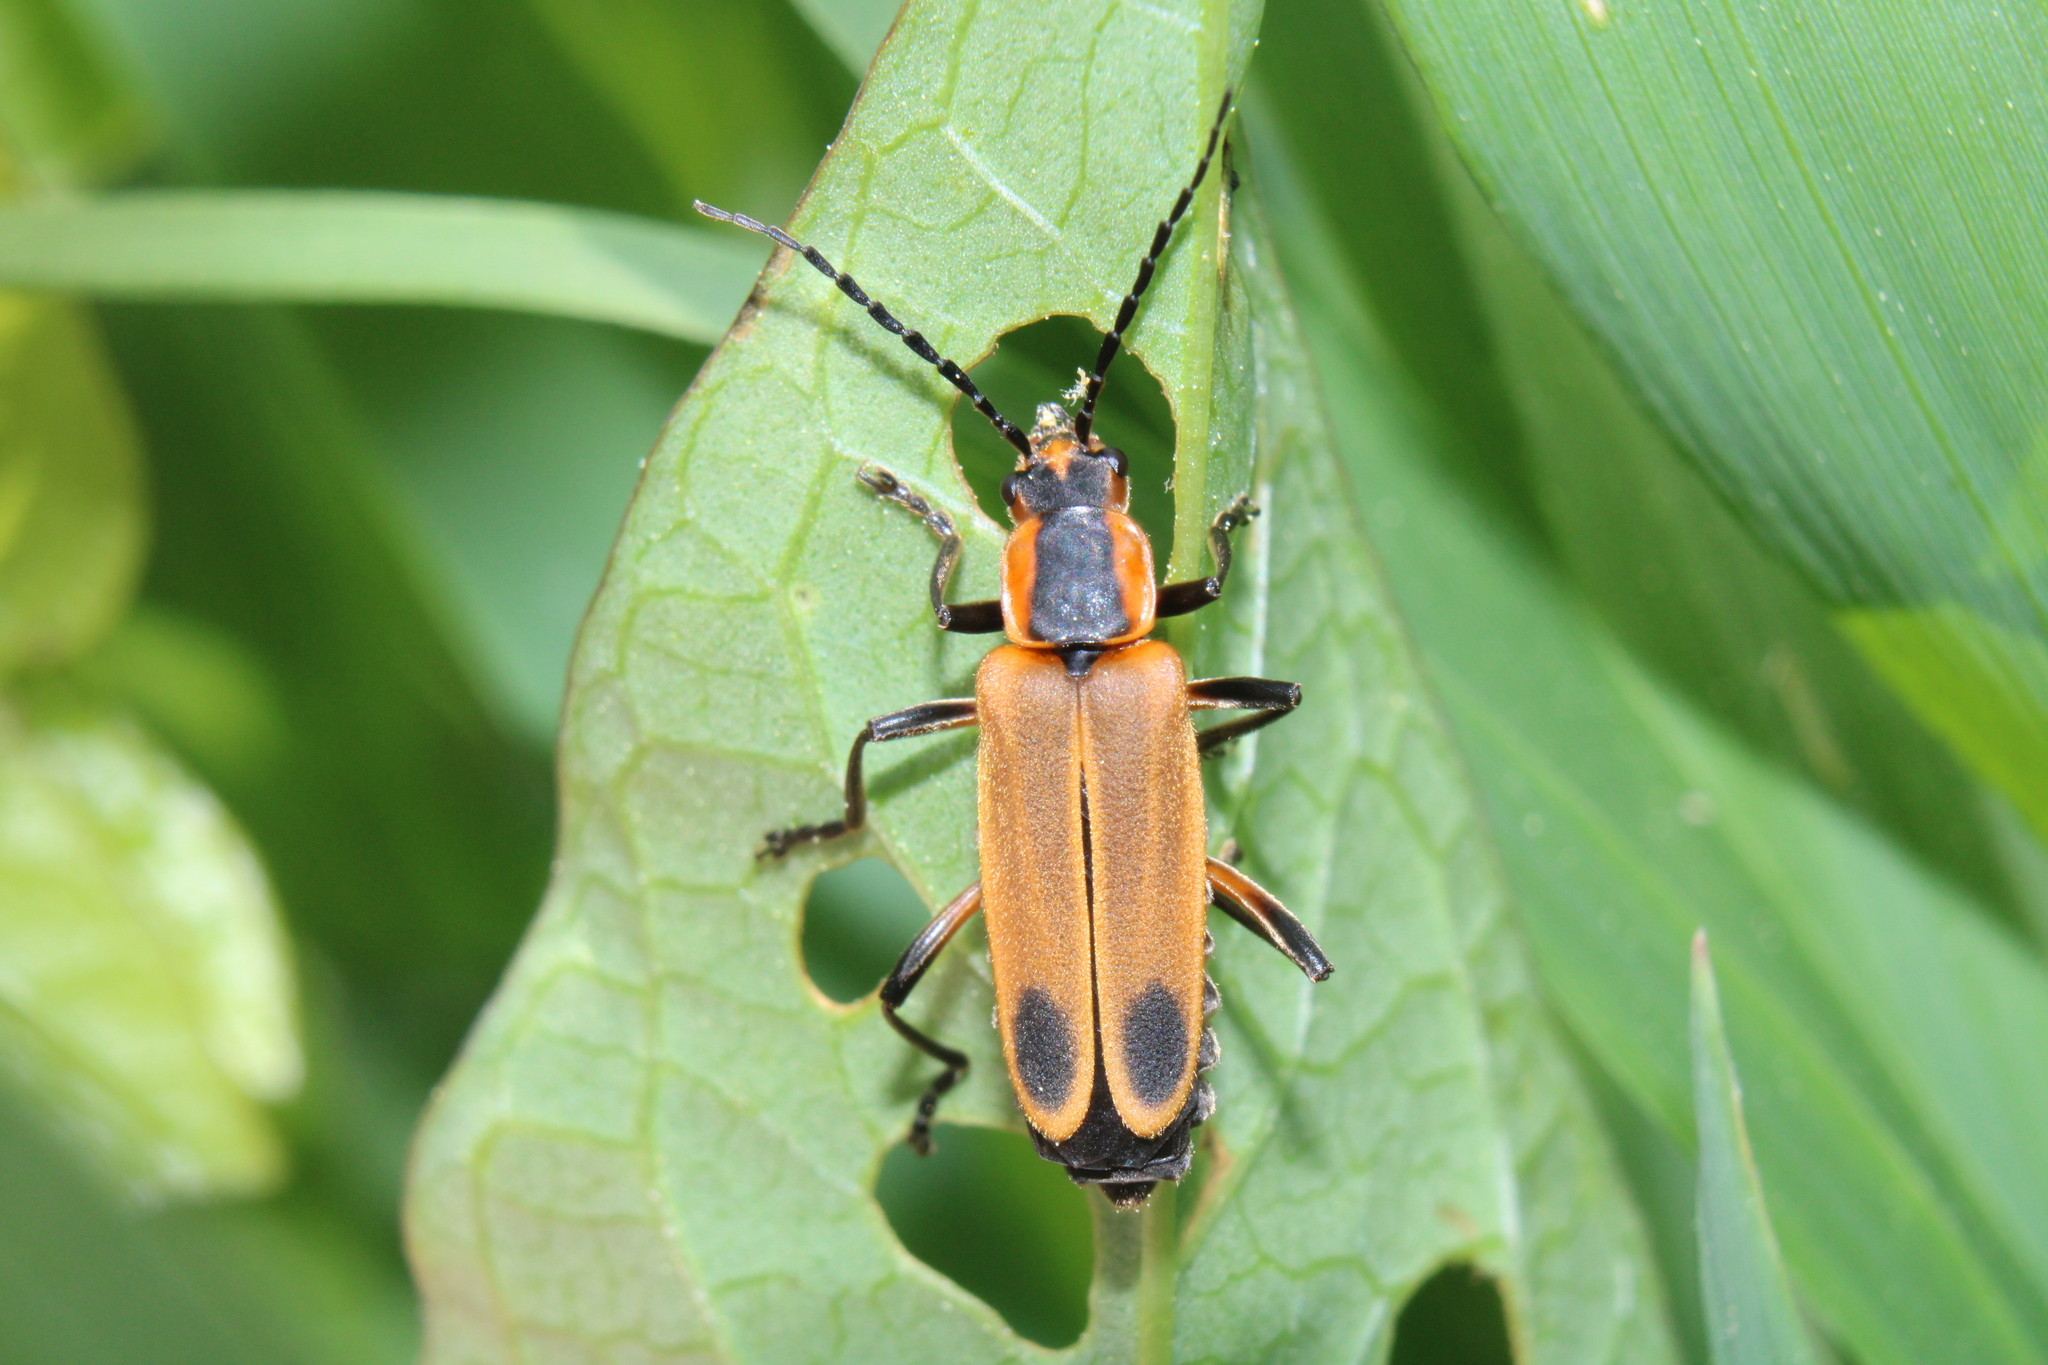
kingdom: Animalia
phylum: Arthropoda
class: Insecta
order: Coleoptera
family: Cantharidae
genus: Chauliognathus
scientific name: Chauliognathus marginatus
